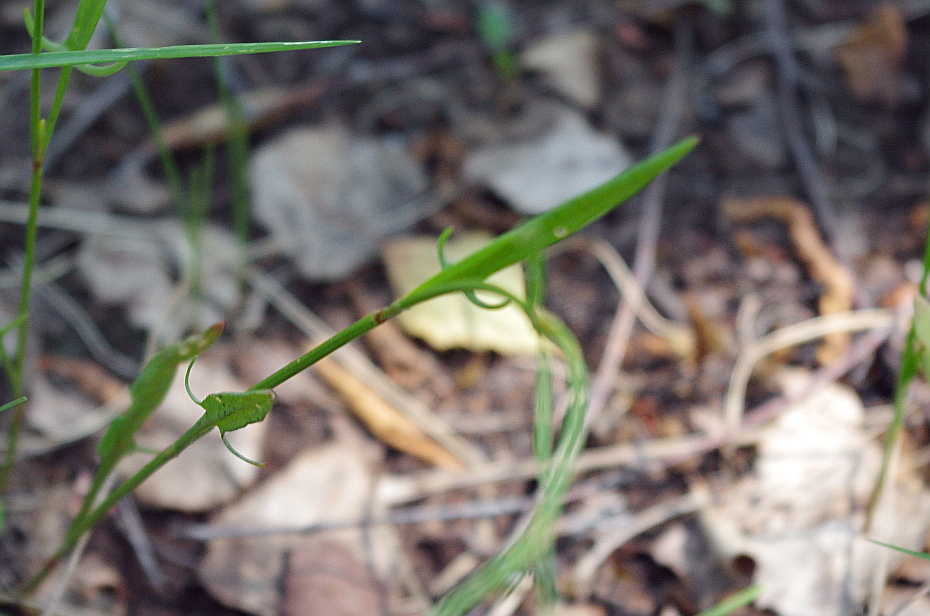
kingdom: Plantae
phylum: Tracheophyta
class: Magnoliopsida
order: Caryophyllales
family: Polygonaceae
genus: Rumex
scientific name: Rumex acetosella
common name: Common sheep sorrel
